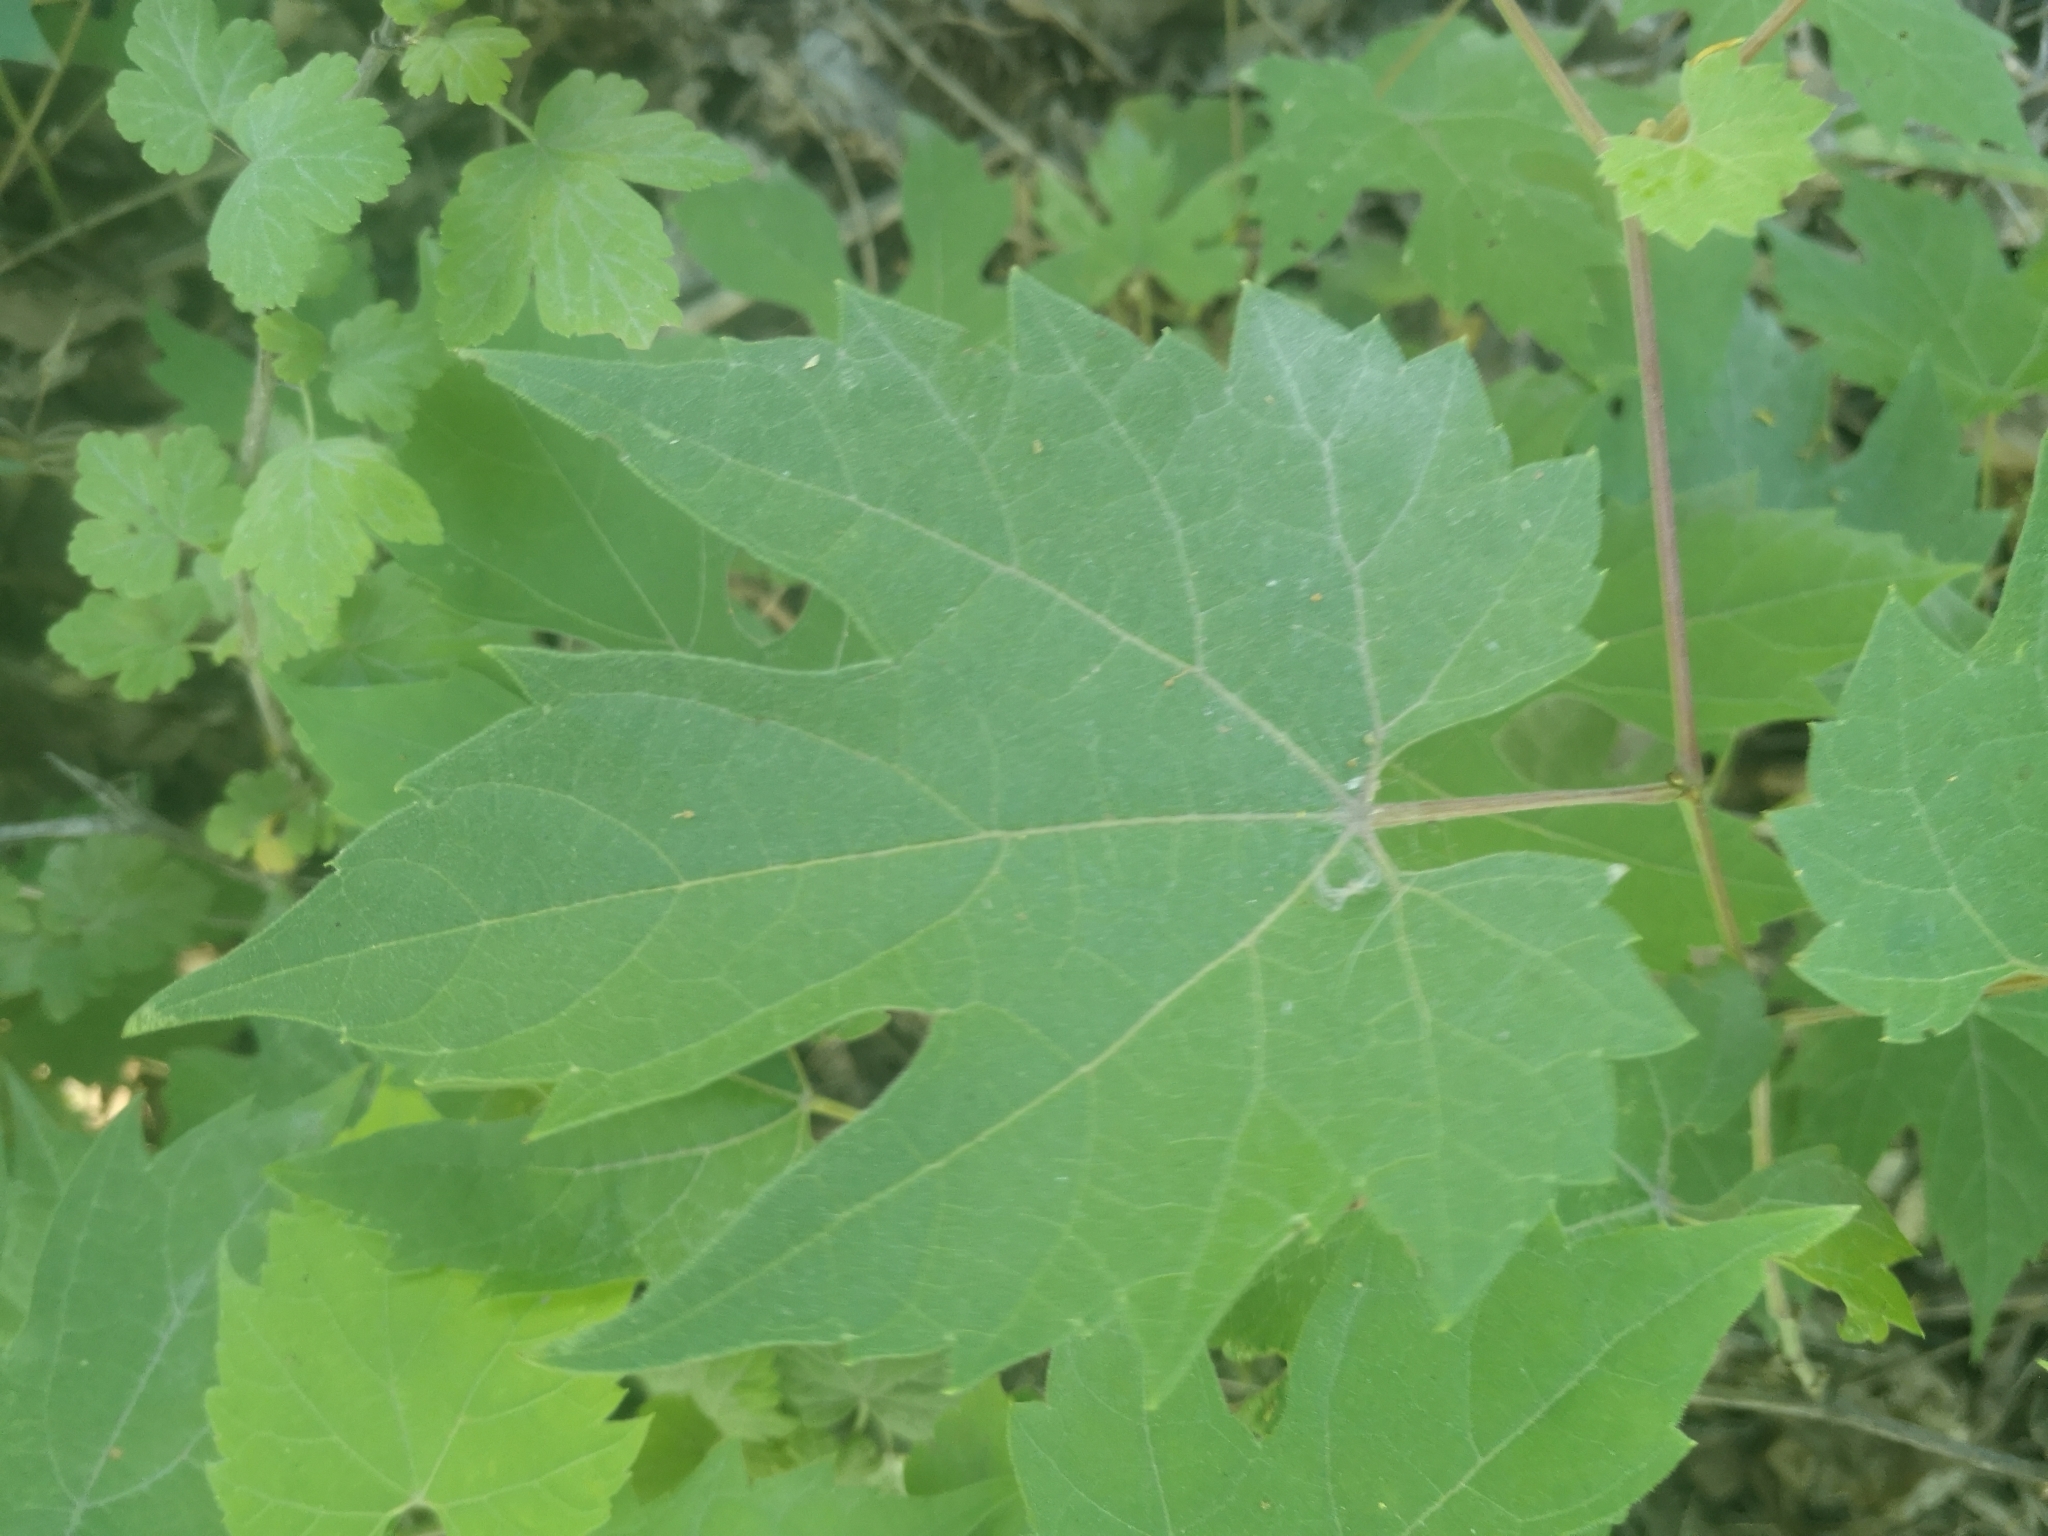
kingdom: Plantae
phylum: Tracheophyta
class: Magnoliopsida
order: Vitales
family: Vitaceae
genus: Vitis
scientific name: Vitis riparia
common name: Frost grape
